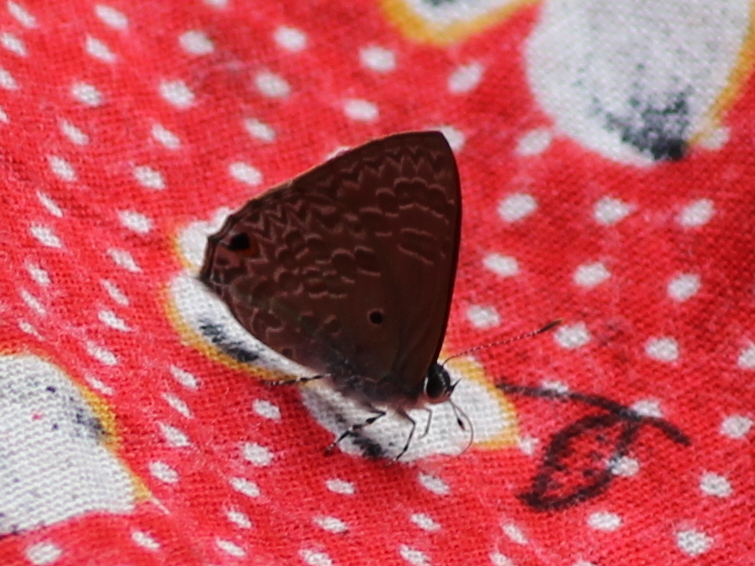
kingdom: Animalia
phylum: Arthropoda
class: Insecta
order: Lepidoptera
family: Lycaenidae
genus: Anthene
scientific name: Anthene lycaenina
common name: Pointed ciliate blue
